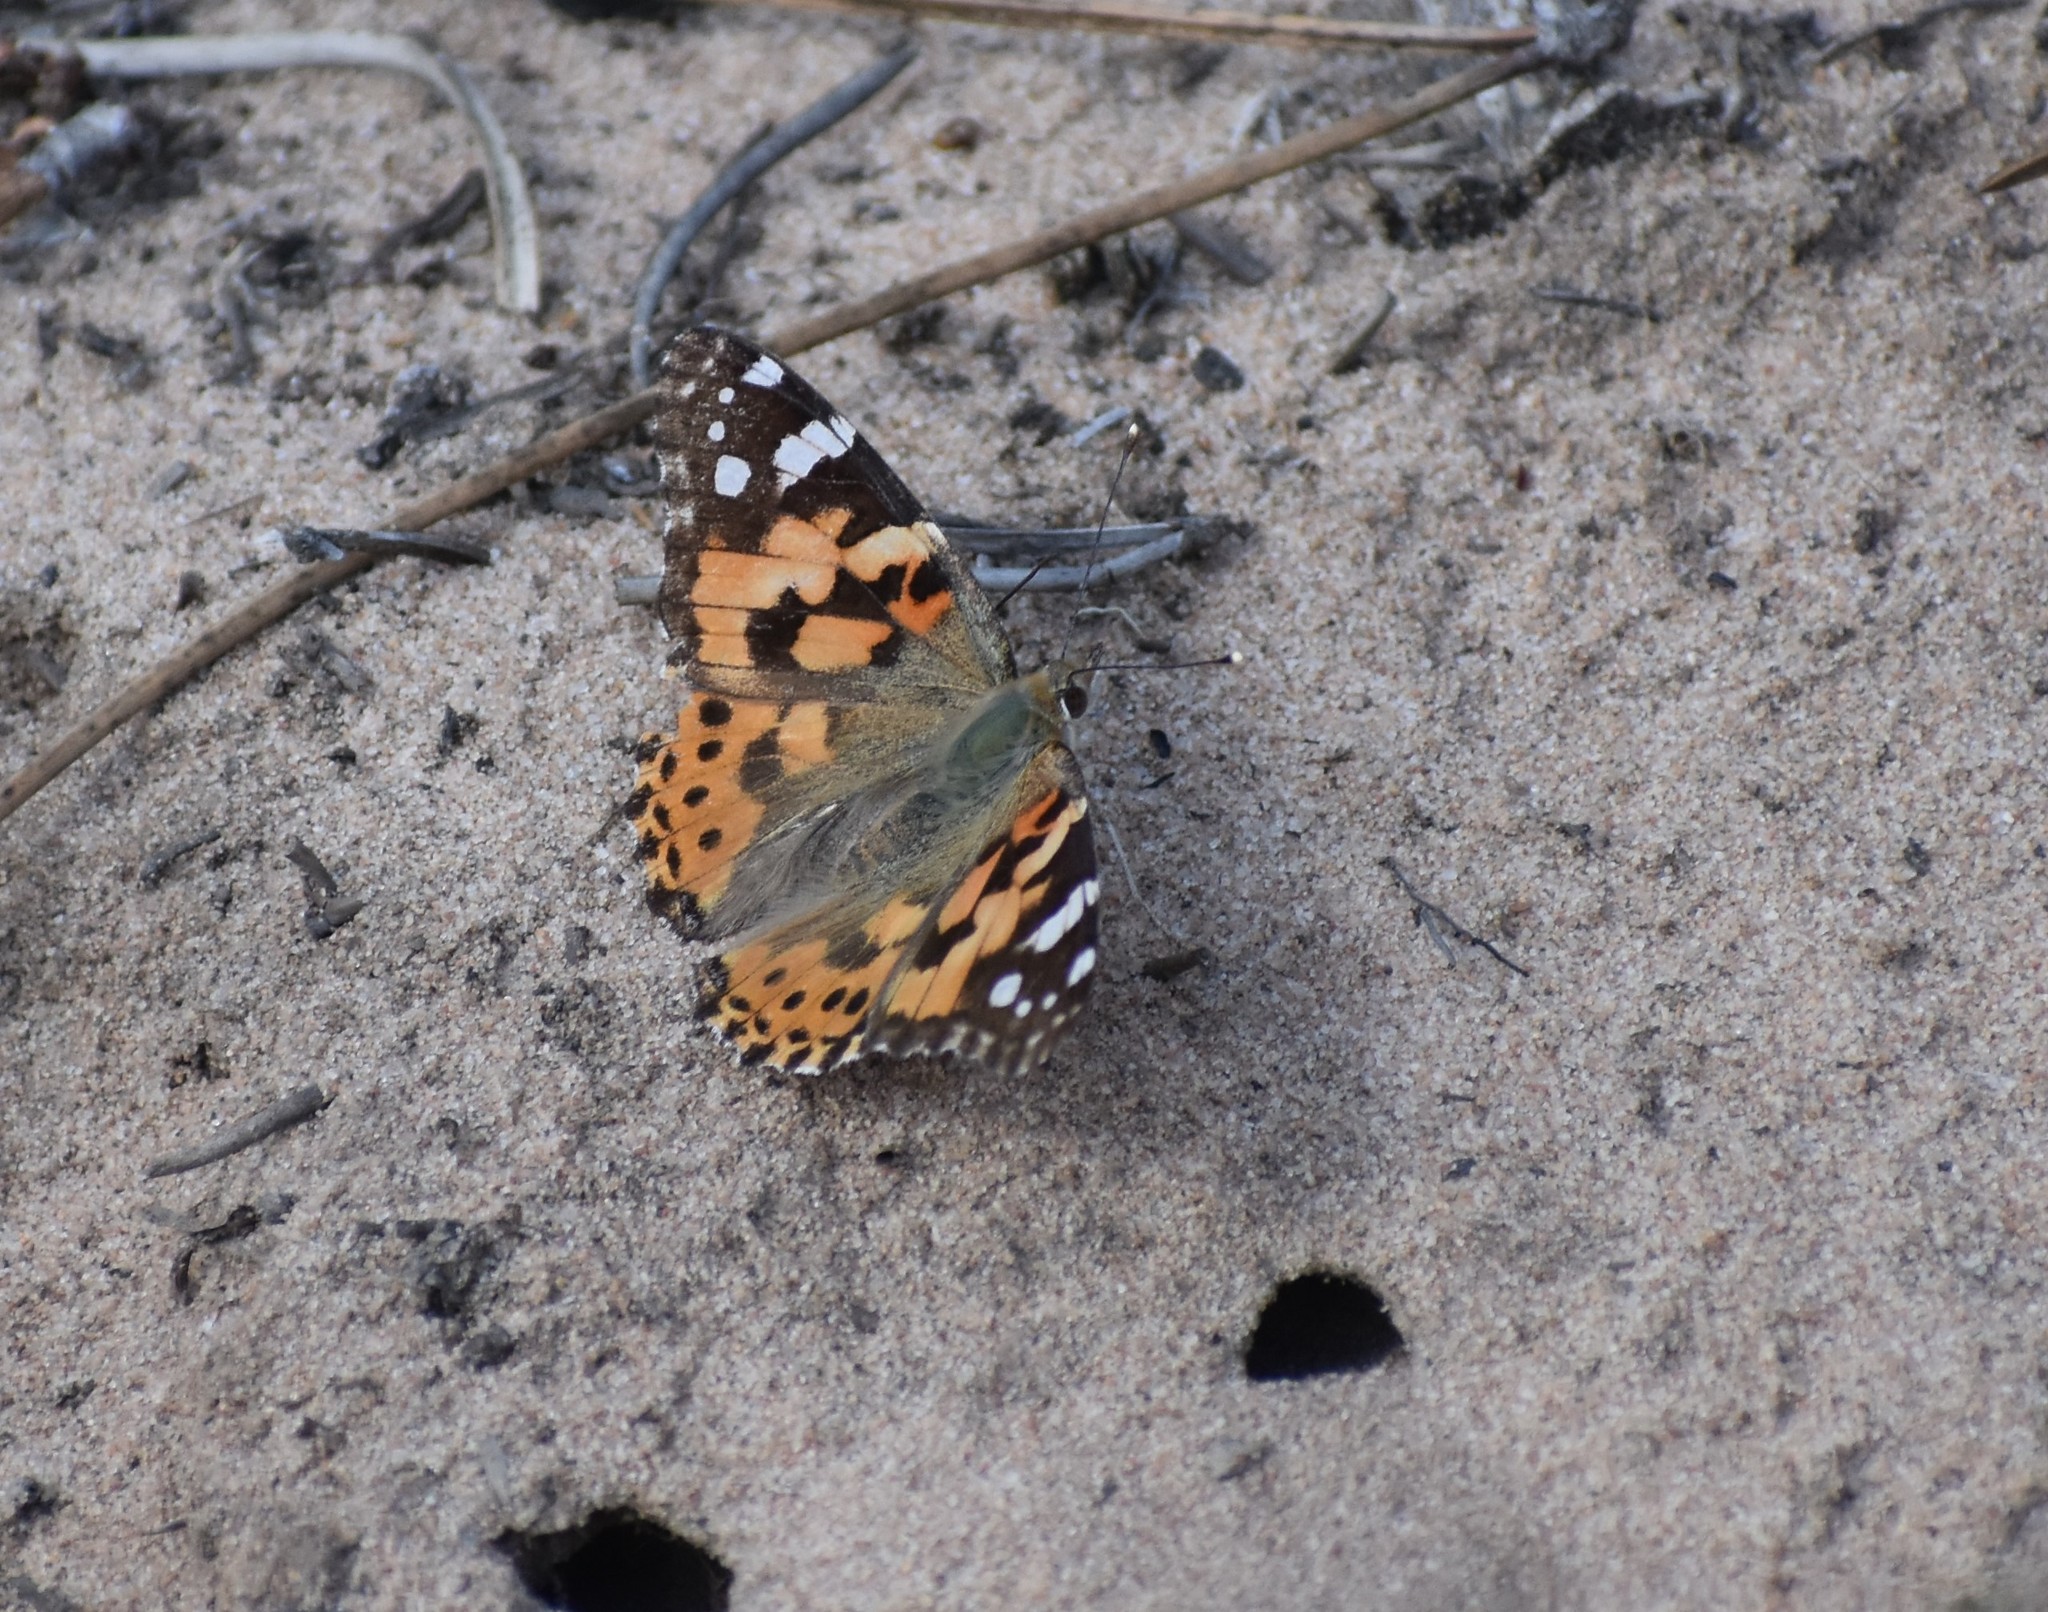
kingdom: Animalia
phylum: Arthropoda
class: Insecta
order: Lepidoptera
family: Nymphalidae
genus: Vanessa
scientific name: Vanessa cardui
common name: Painted lady
